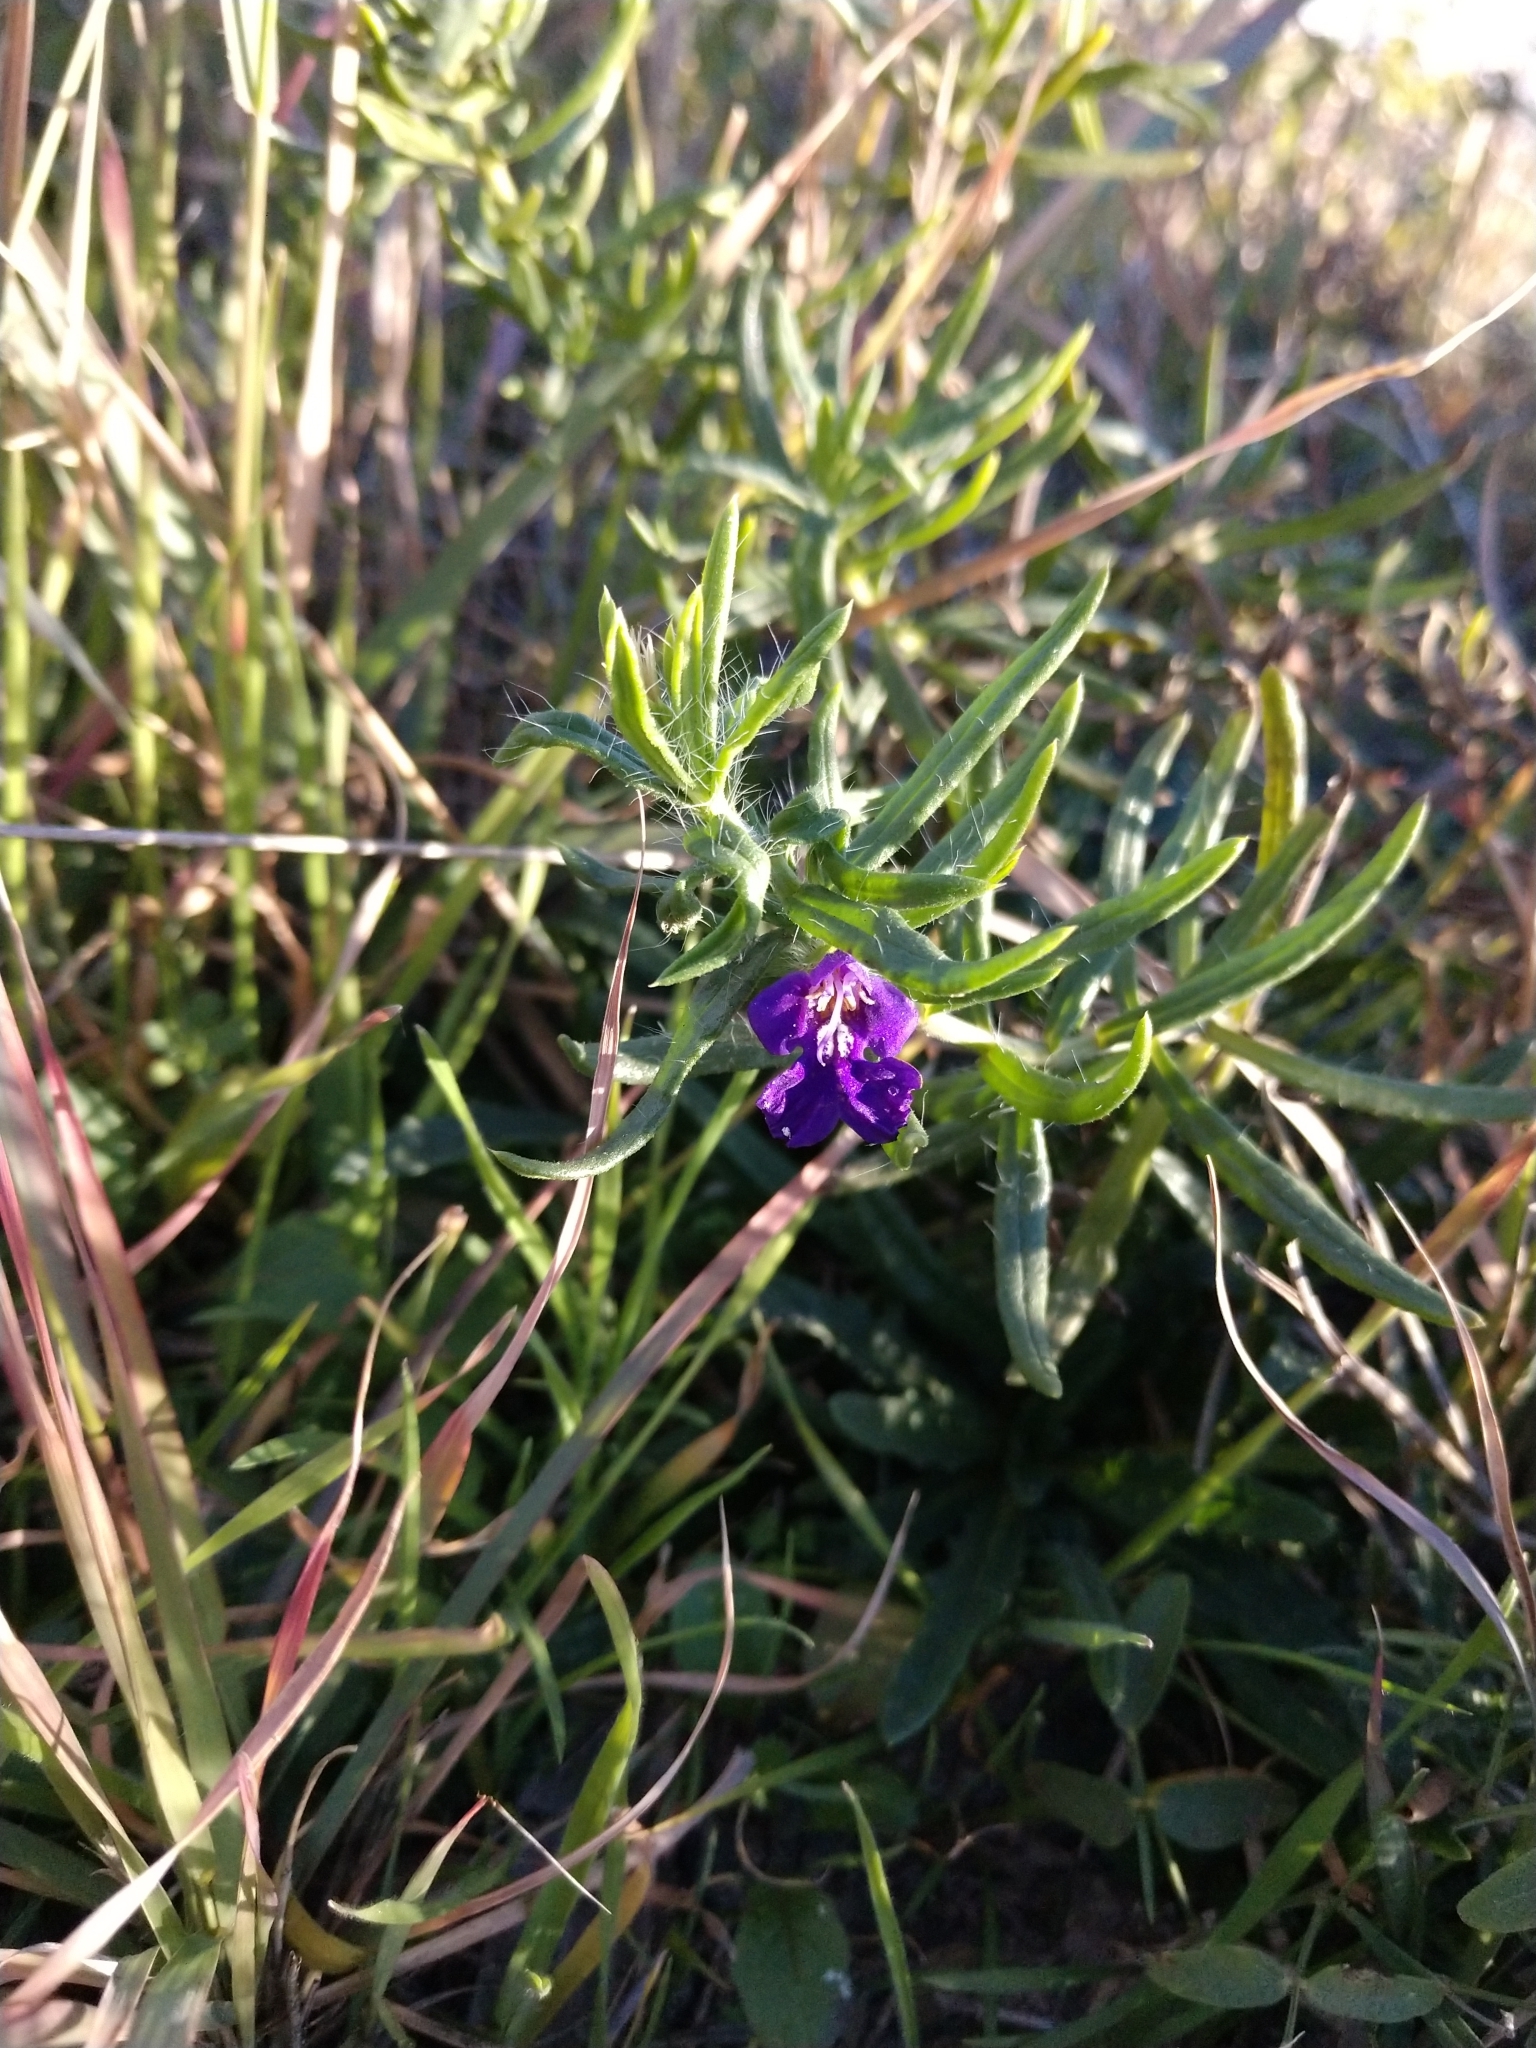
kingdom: Plantae
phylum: Tracheophyta
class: Magnoliopsida
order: Lamiales
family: Lamiaceae
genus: Salvia
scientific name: Salvia texana
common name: Texas sage
